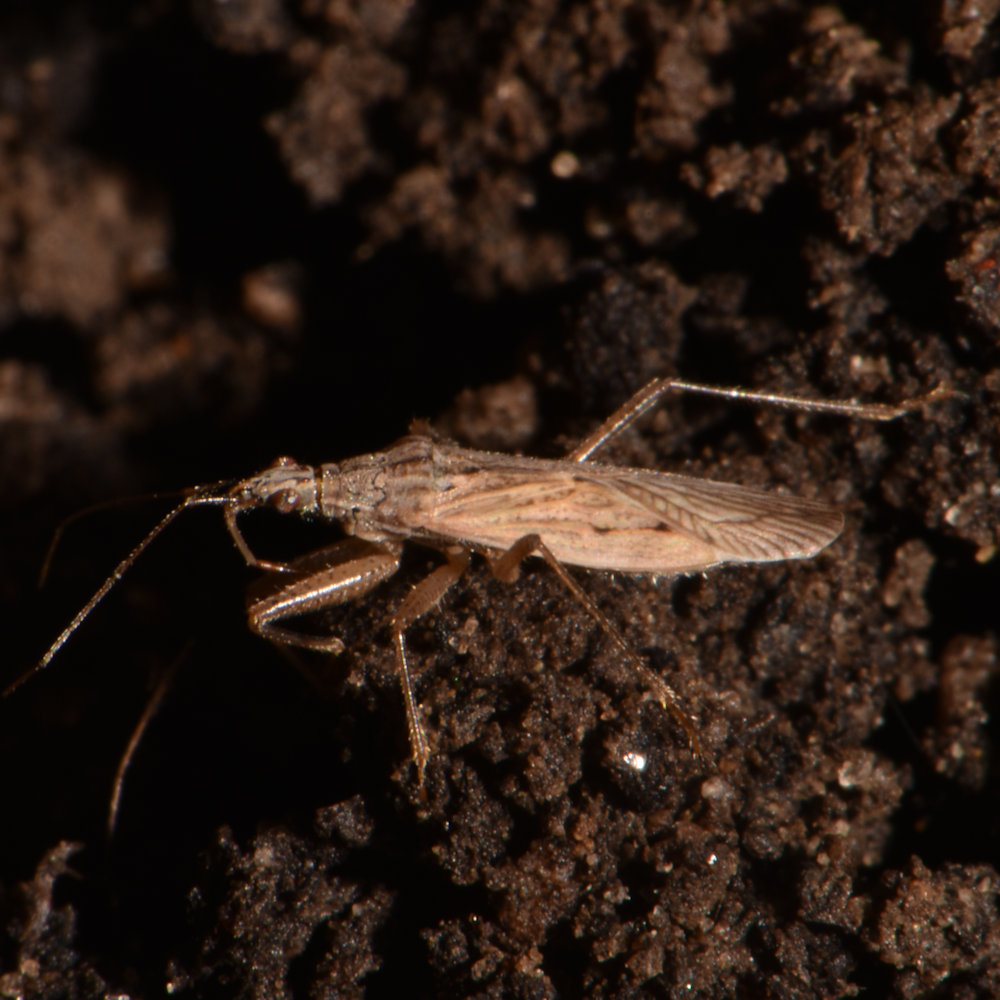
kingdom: Animalia
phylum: Arthropoda
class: Insecta
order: Hemiptera
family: Nabidae
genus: Nabis
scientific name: Nabis americoferus
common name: Common damsel bug
